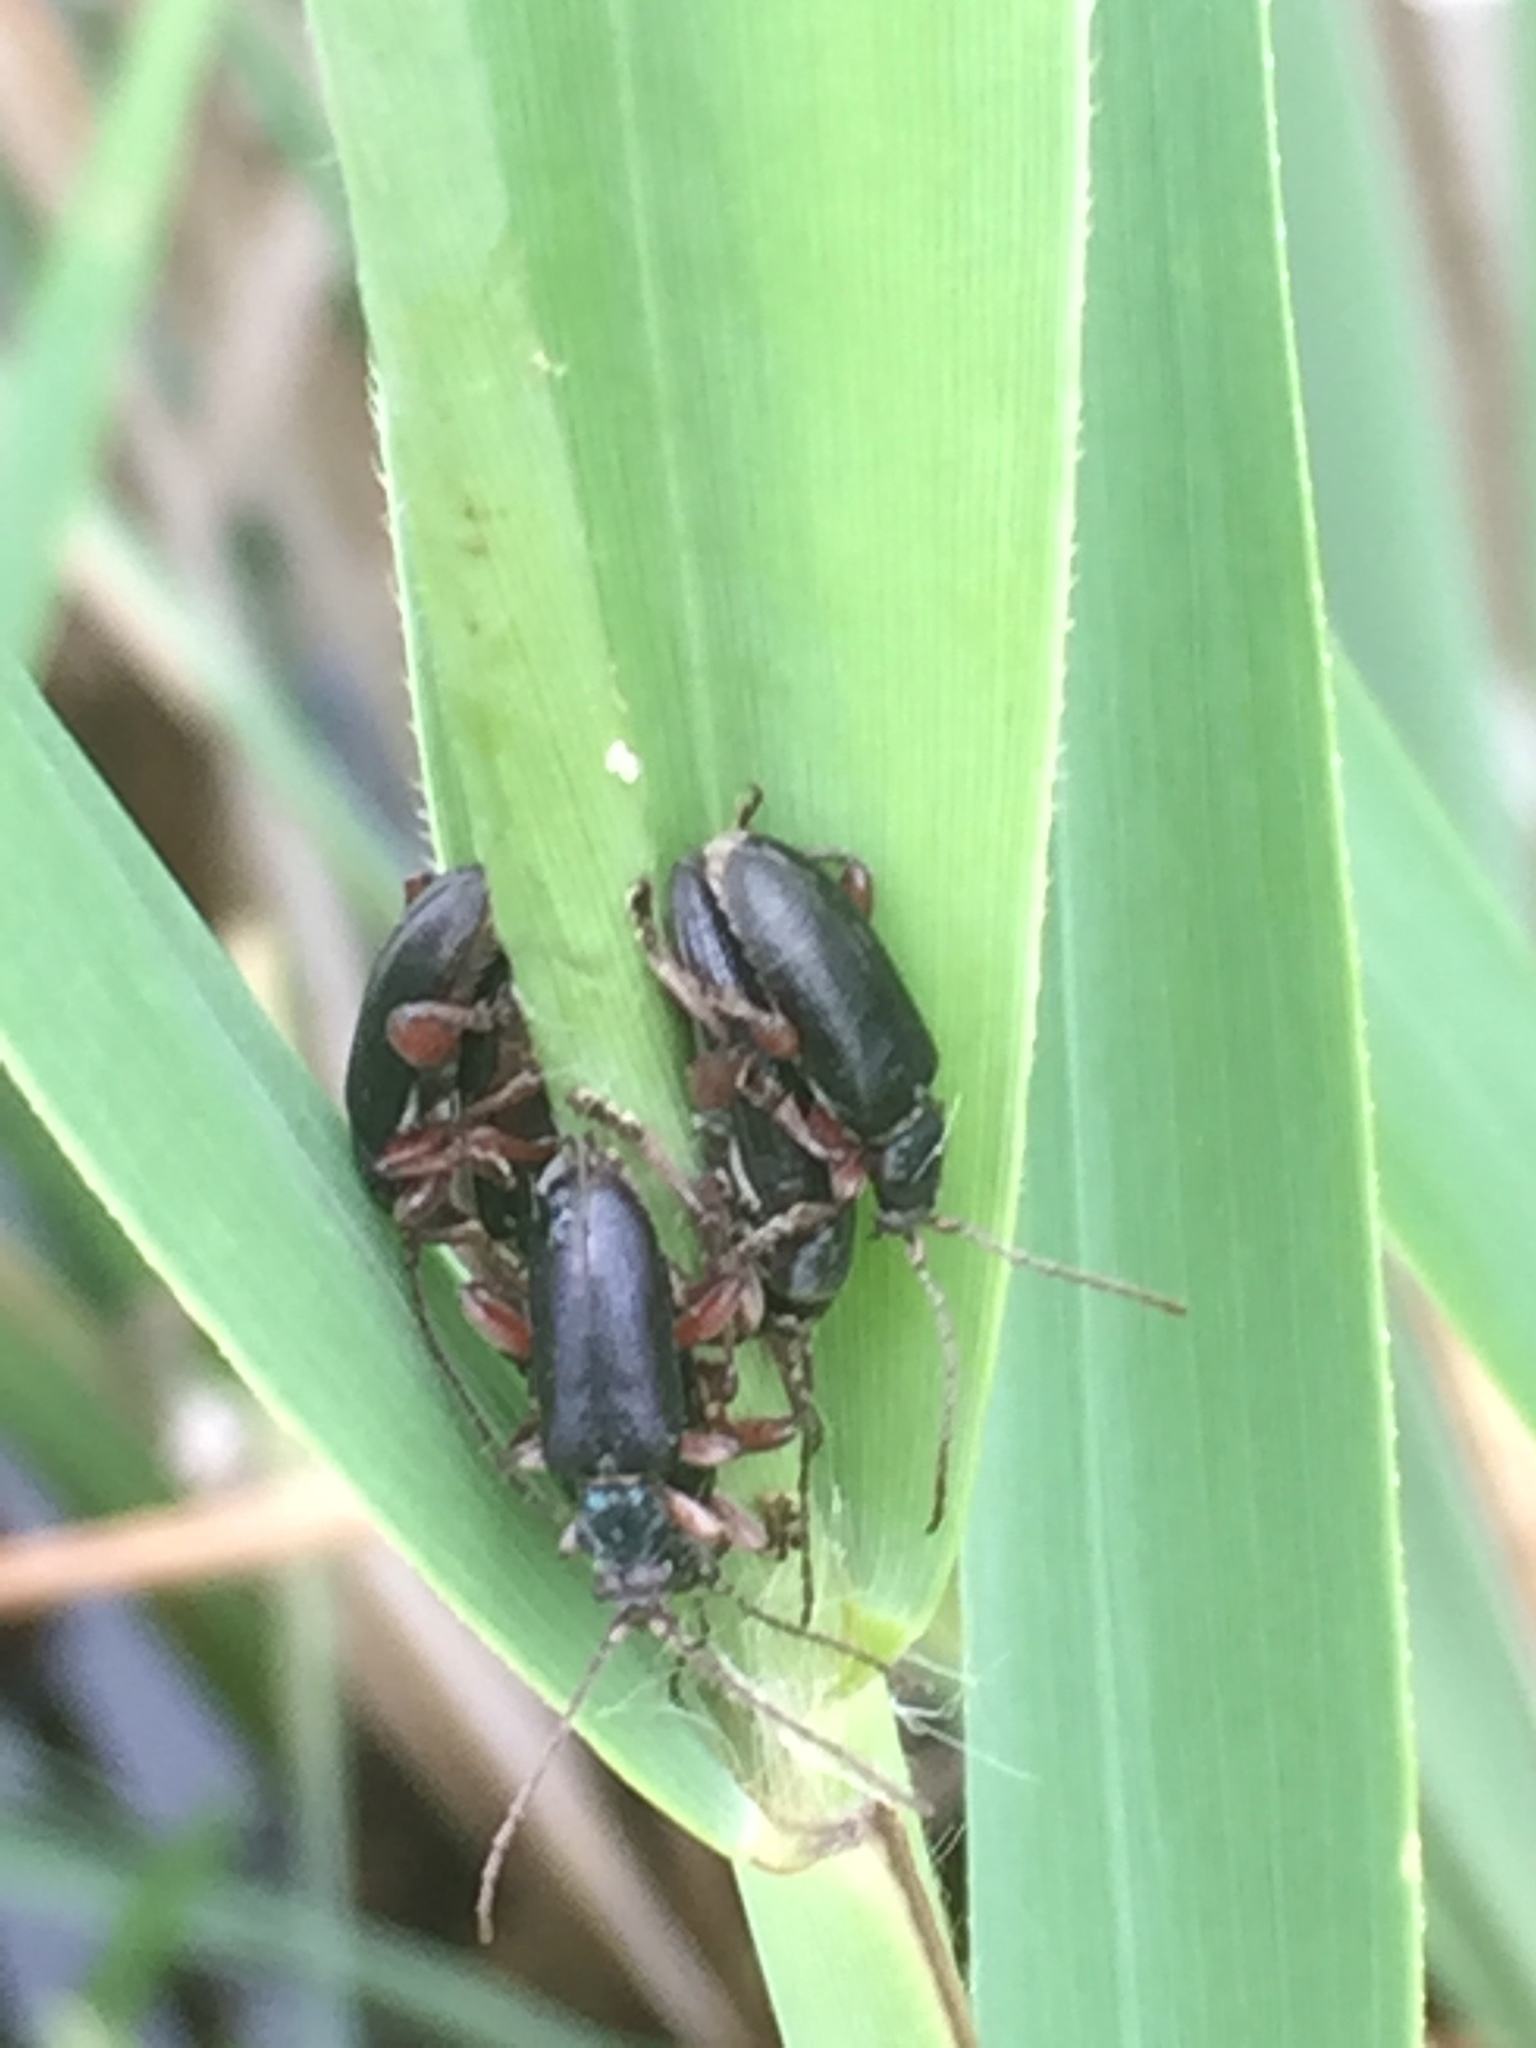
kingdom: Animalia
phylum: Arthropoda
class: Insecta
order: Coleoptera
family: Chrysomelidae
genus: Plateumaris
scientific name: Plateumaris braccata
